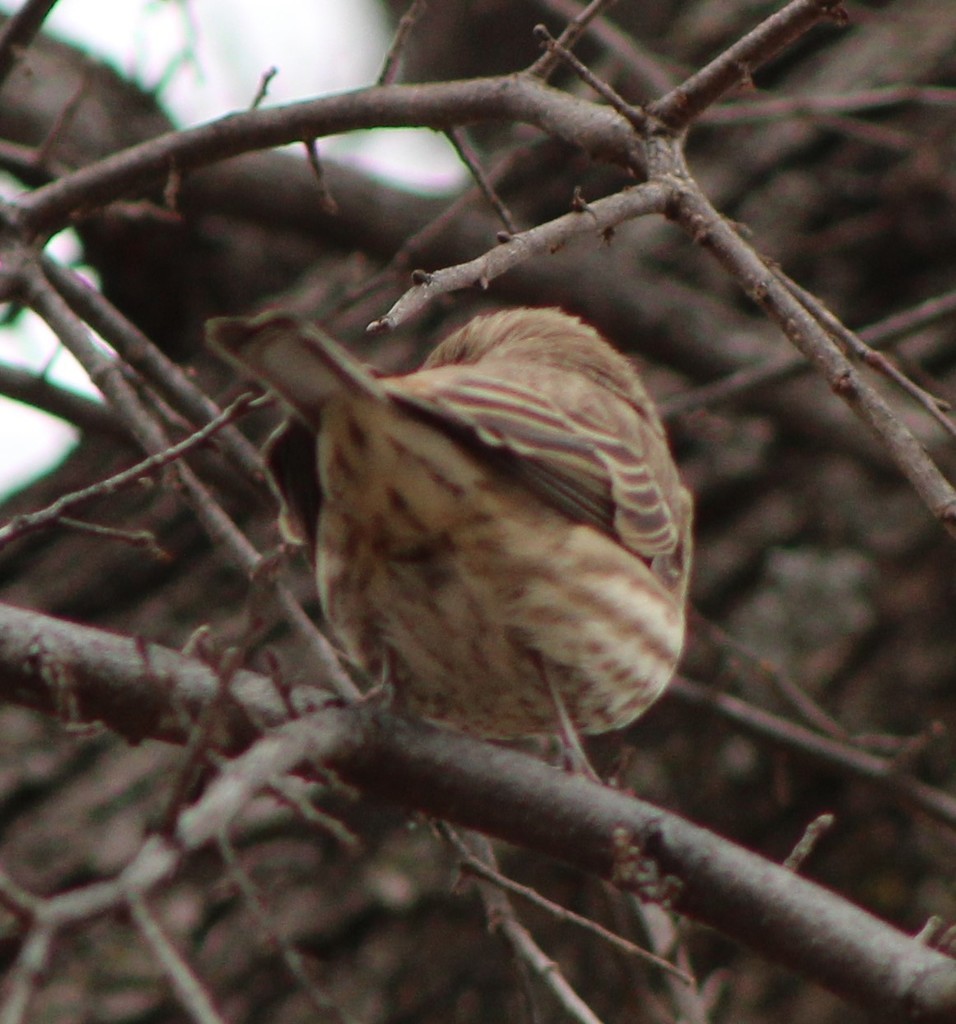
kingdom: Animalia
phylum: Chordata
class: Aves
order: Passeriformes
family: Fringillidae
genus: Haemorhous
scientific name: Haemorhous mexicanus
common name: House finch
